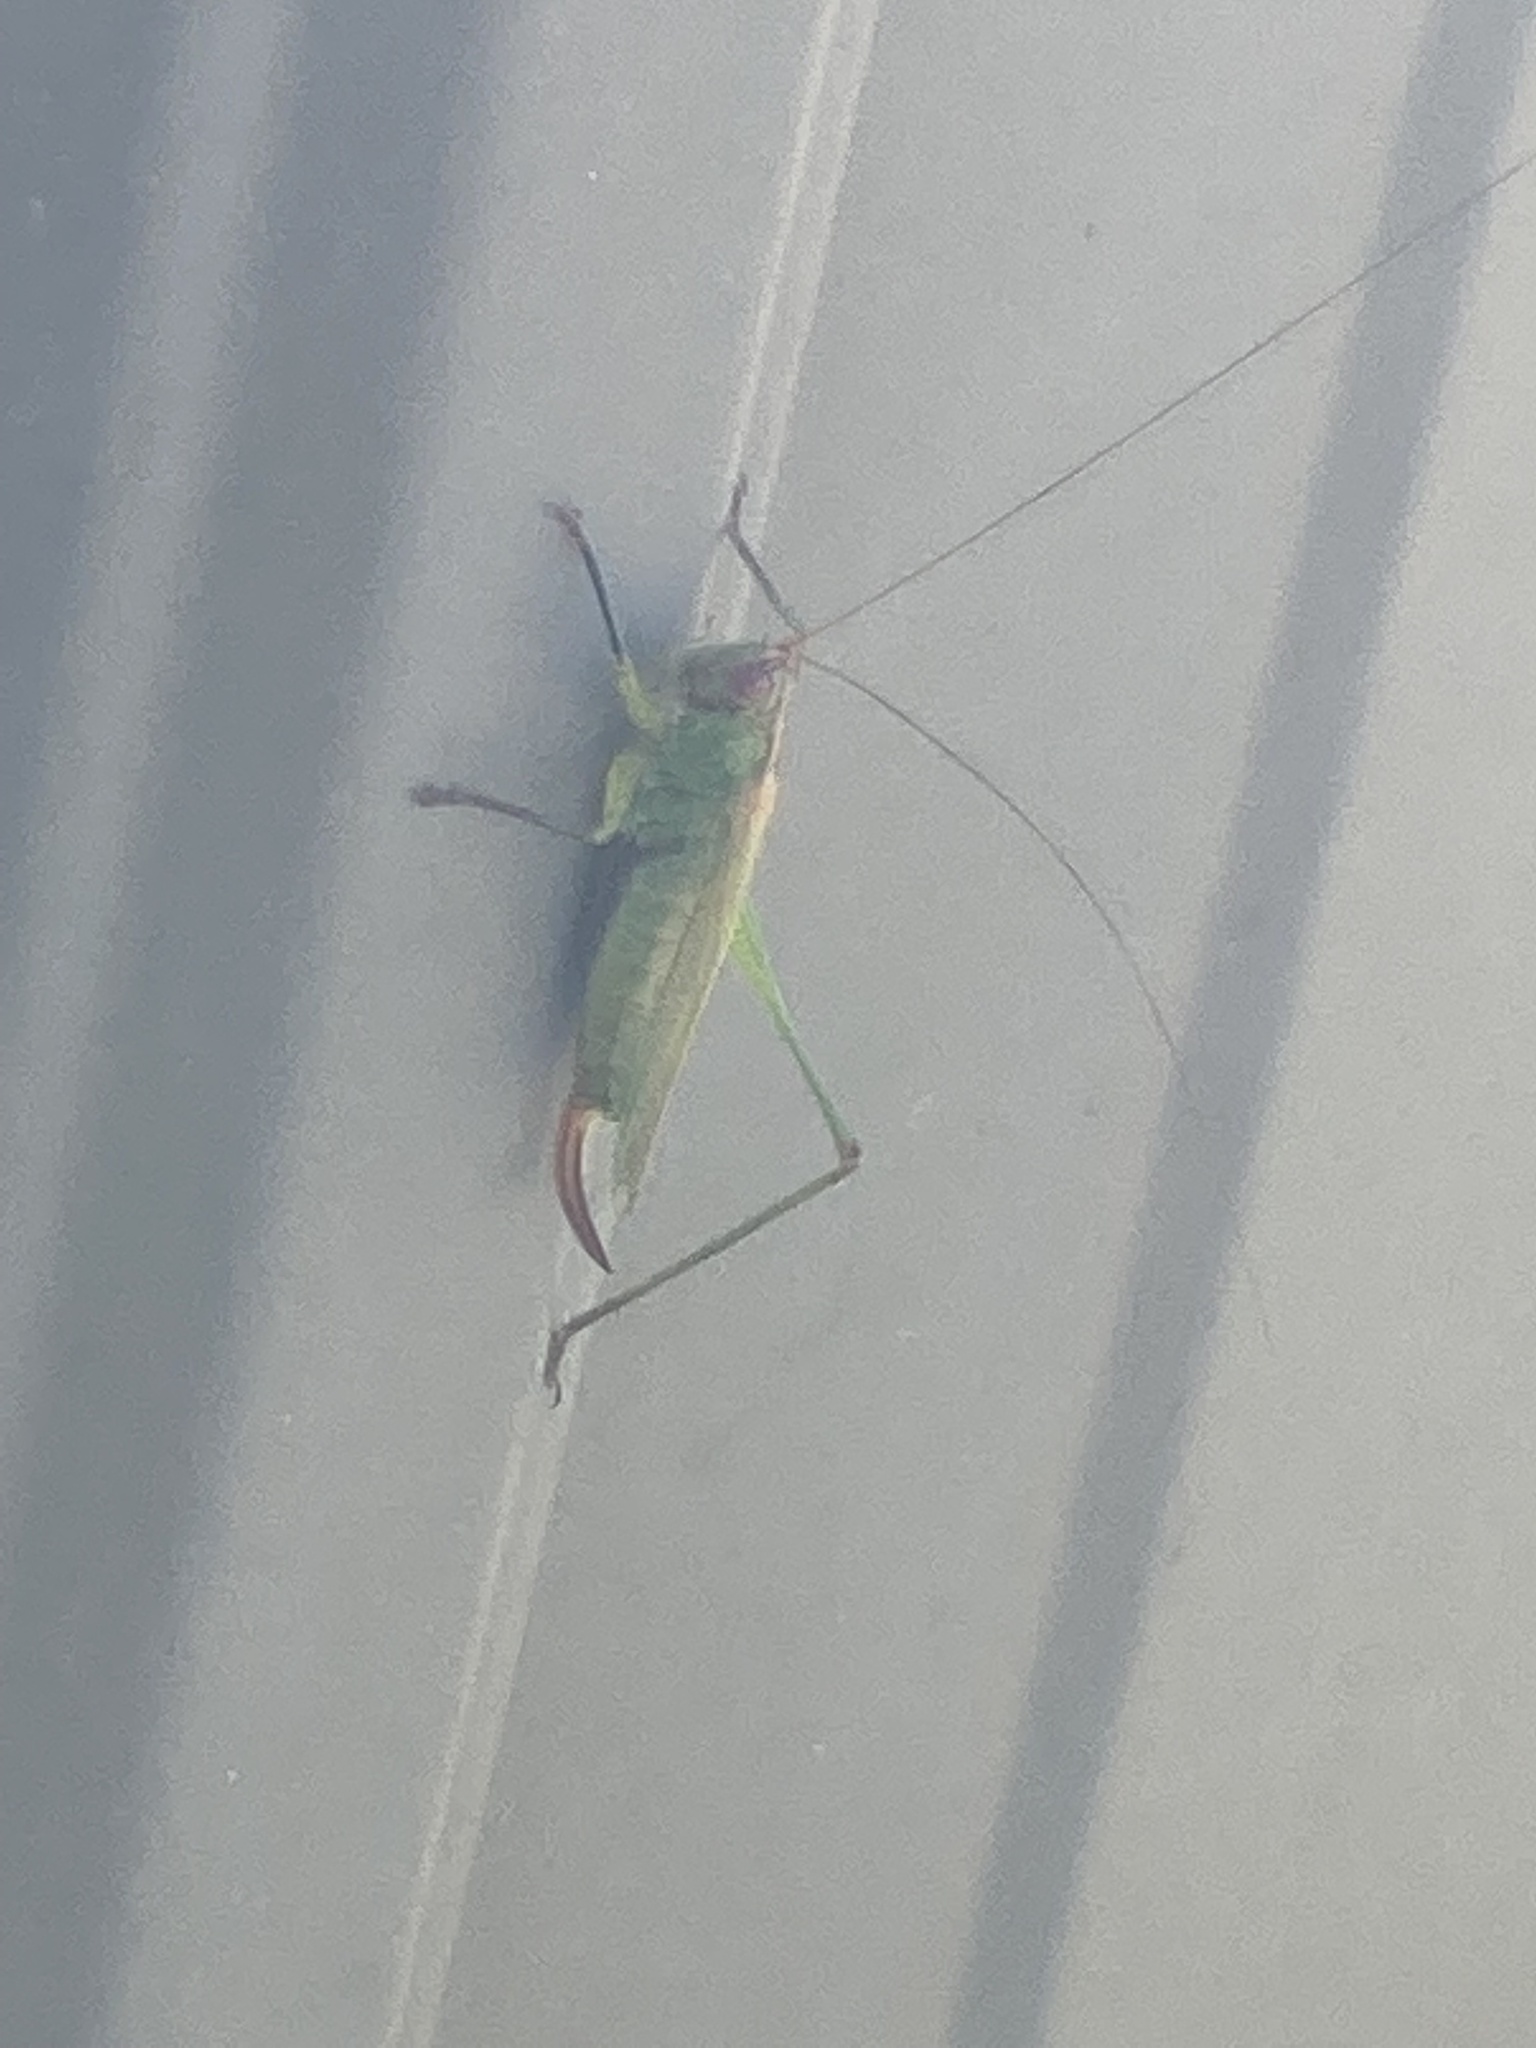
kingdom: Animalia
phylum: Arthropoda
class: Insecta
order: Orthoptera
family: Tettigoniidae
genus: Orchelimum
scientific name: Orchelimum nigripes
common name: Black-legged meadow katydid
